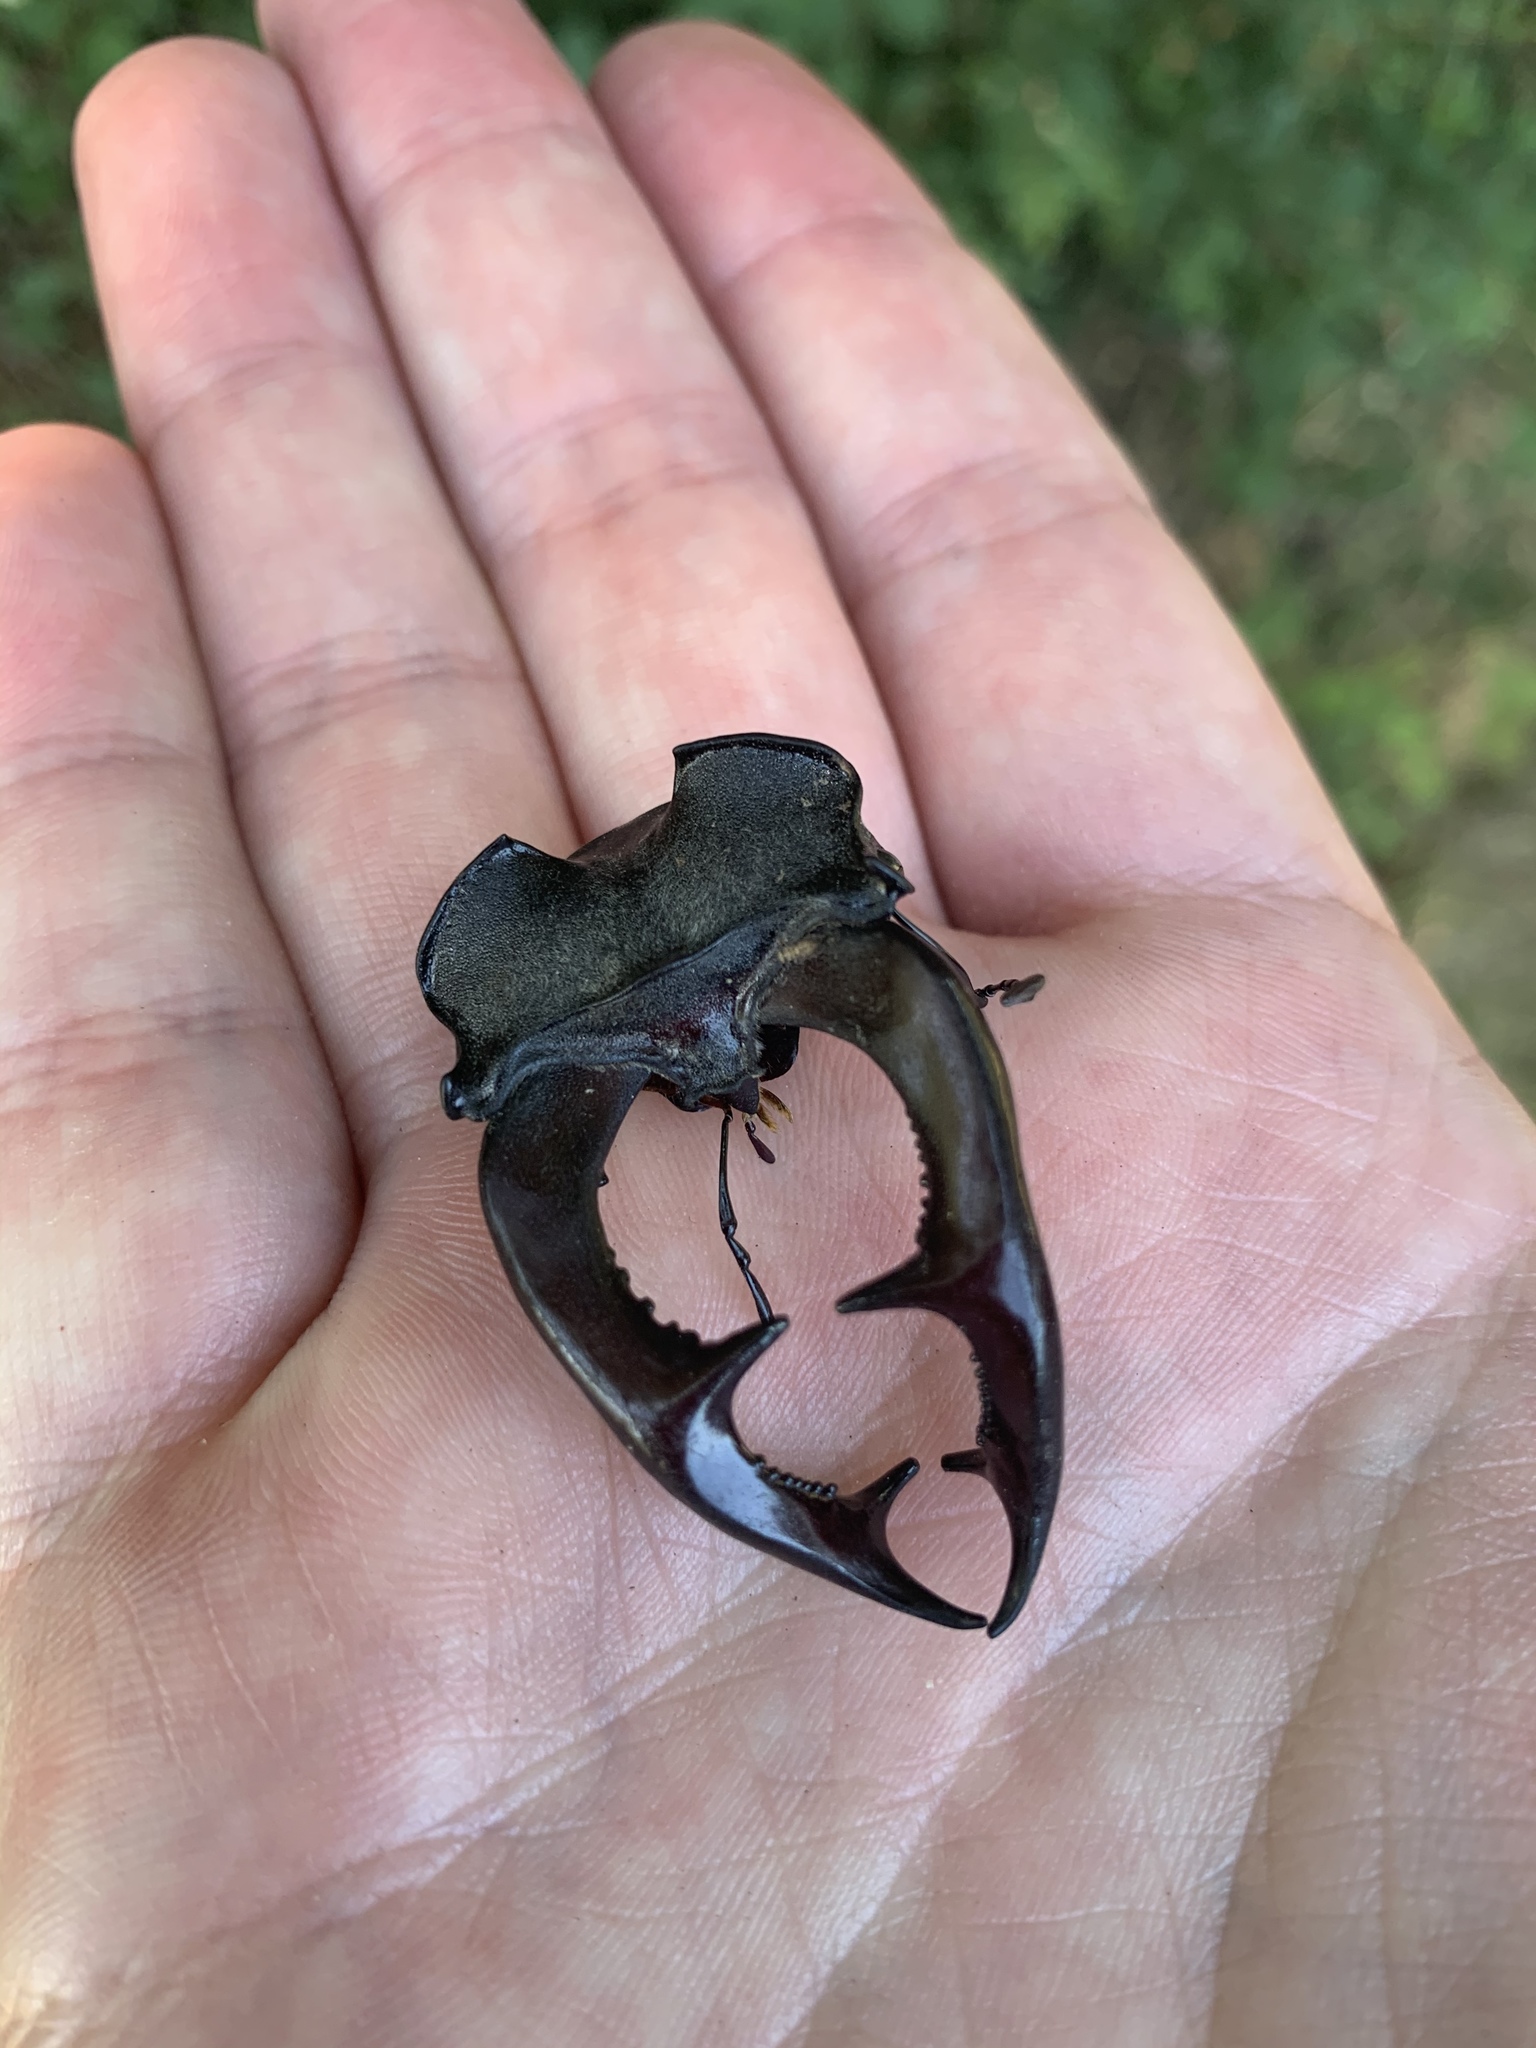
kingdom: Animalia
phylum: Arthropoda
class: Insecta
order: Coleoptera
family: Lucanidae
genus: Lucanus
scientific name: Lucanus cervus
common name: Stag beetle
